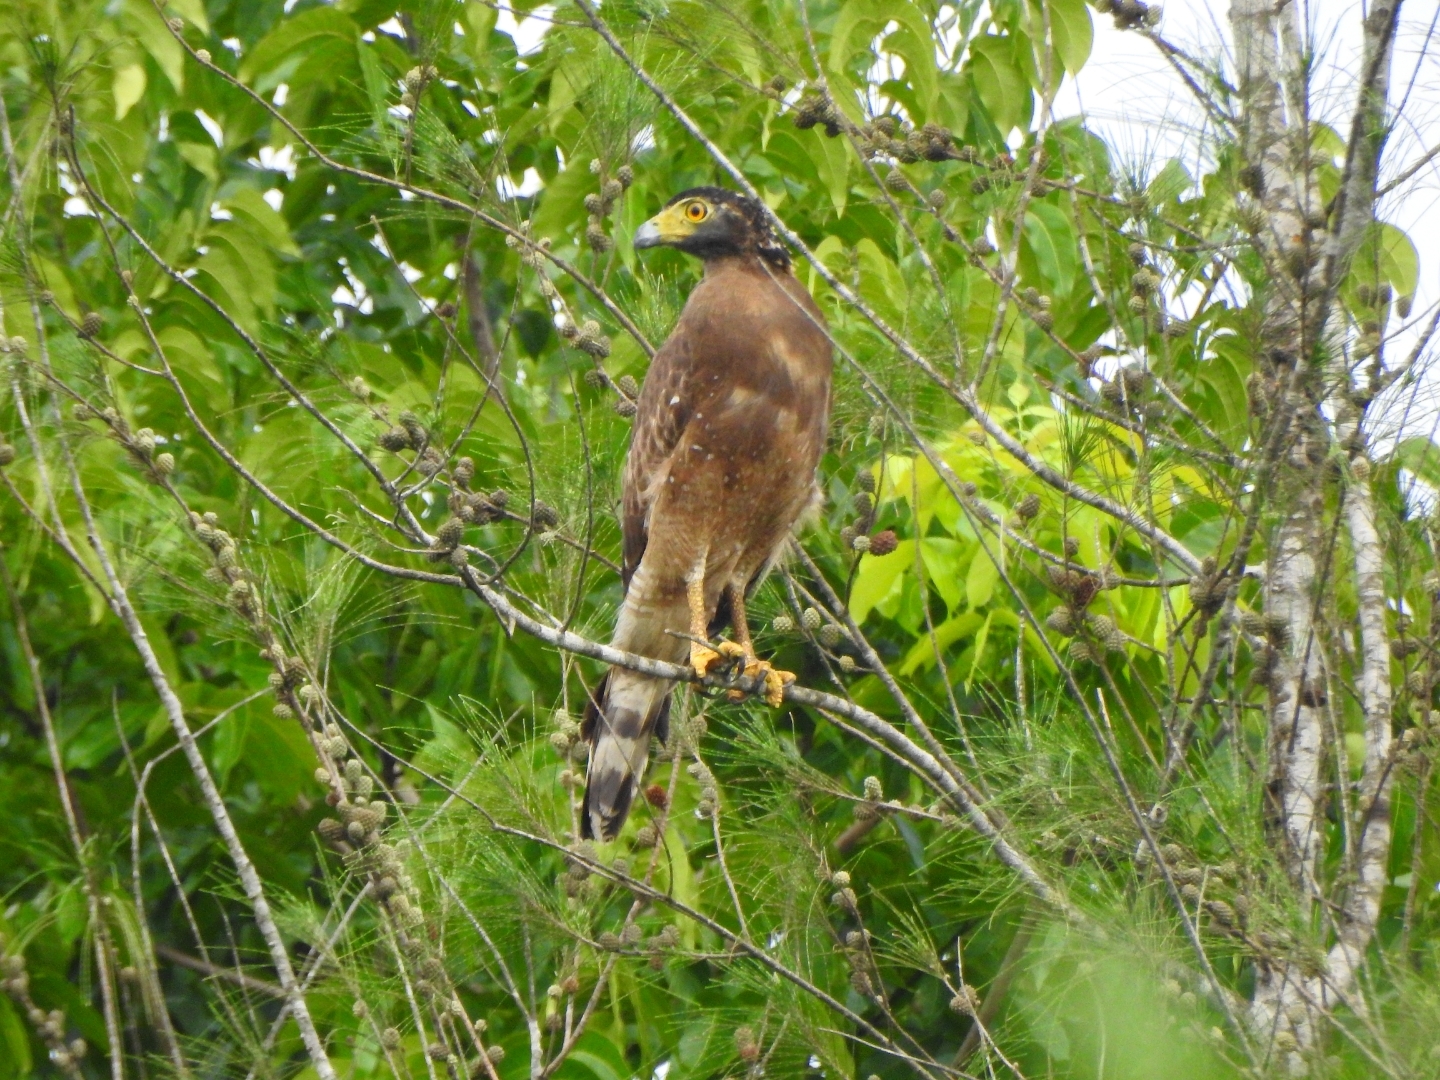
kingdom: Animalia
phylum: Chordata
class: Aves
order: Accipitriformes
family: Accipitridae
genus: Spilornis
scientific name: Spilornis cheela
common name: Crested serpent eagle
